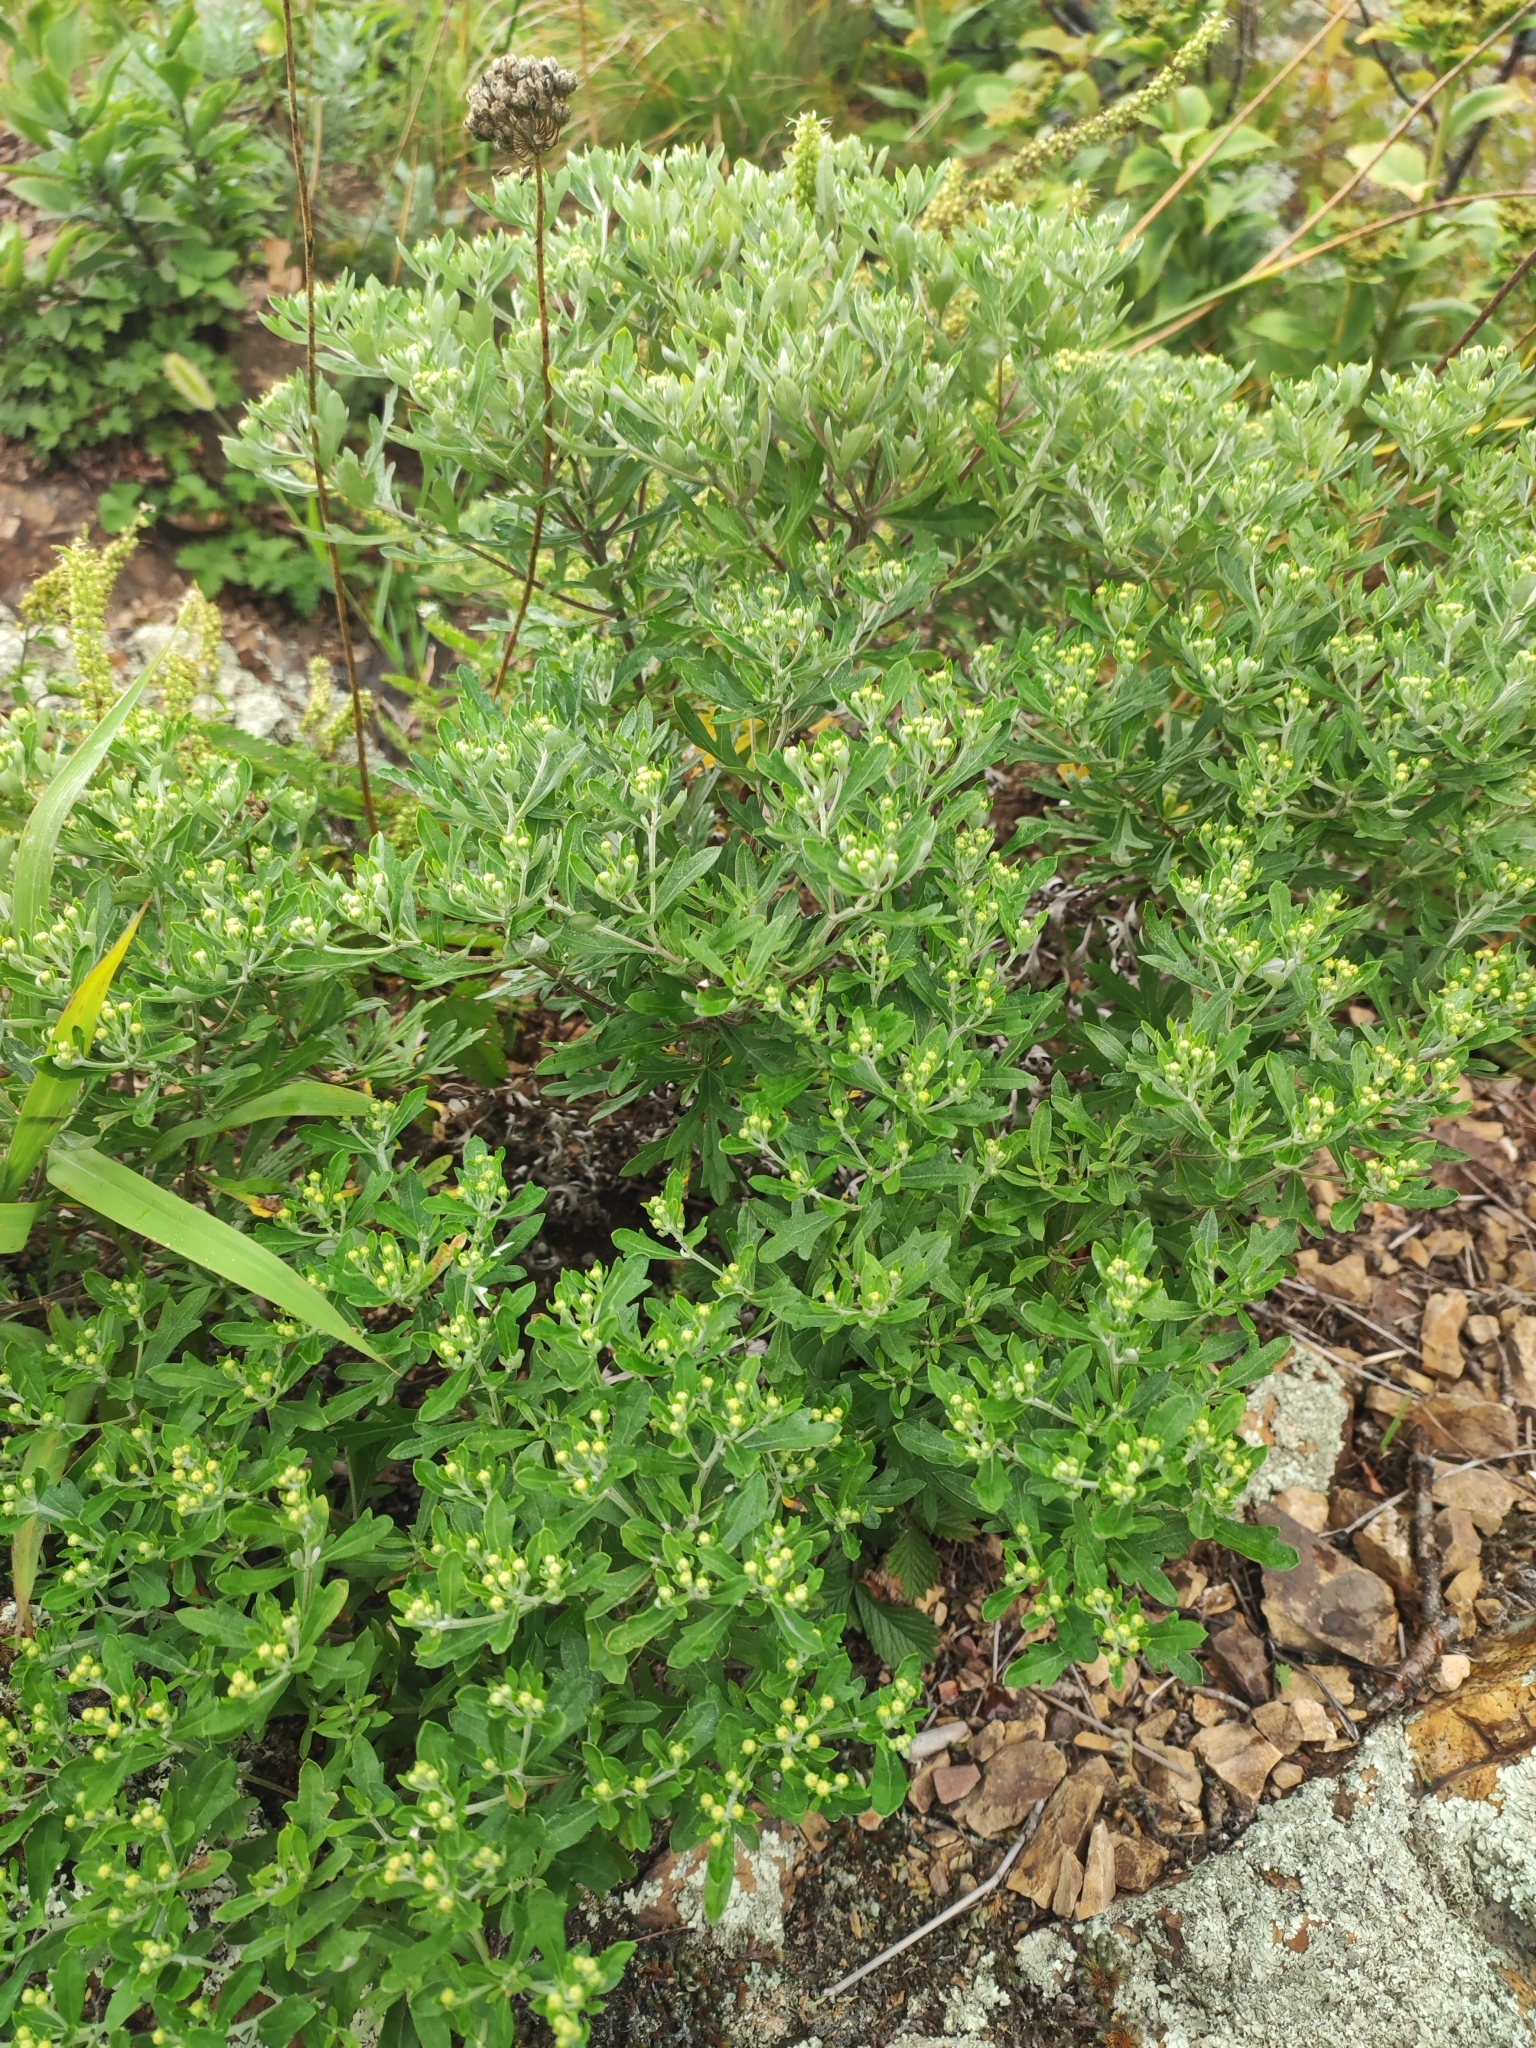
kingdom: Plantae
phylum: Tracheophyta
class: Magnoliopsida
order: Asterales
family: Asteraceae
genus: Ajania
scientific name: Ajania pallasiana
